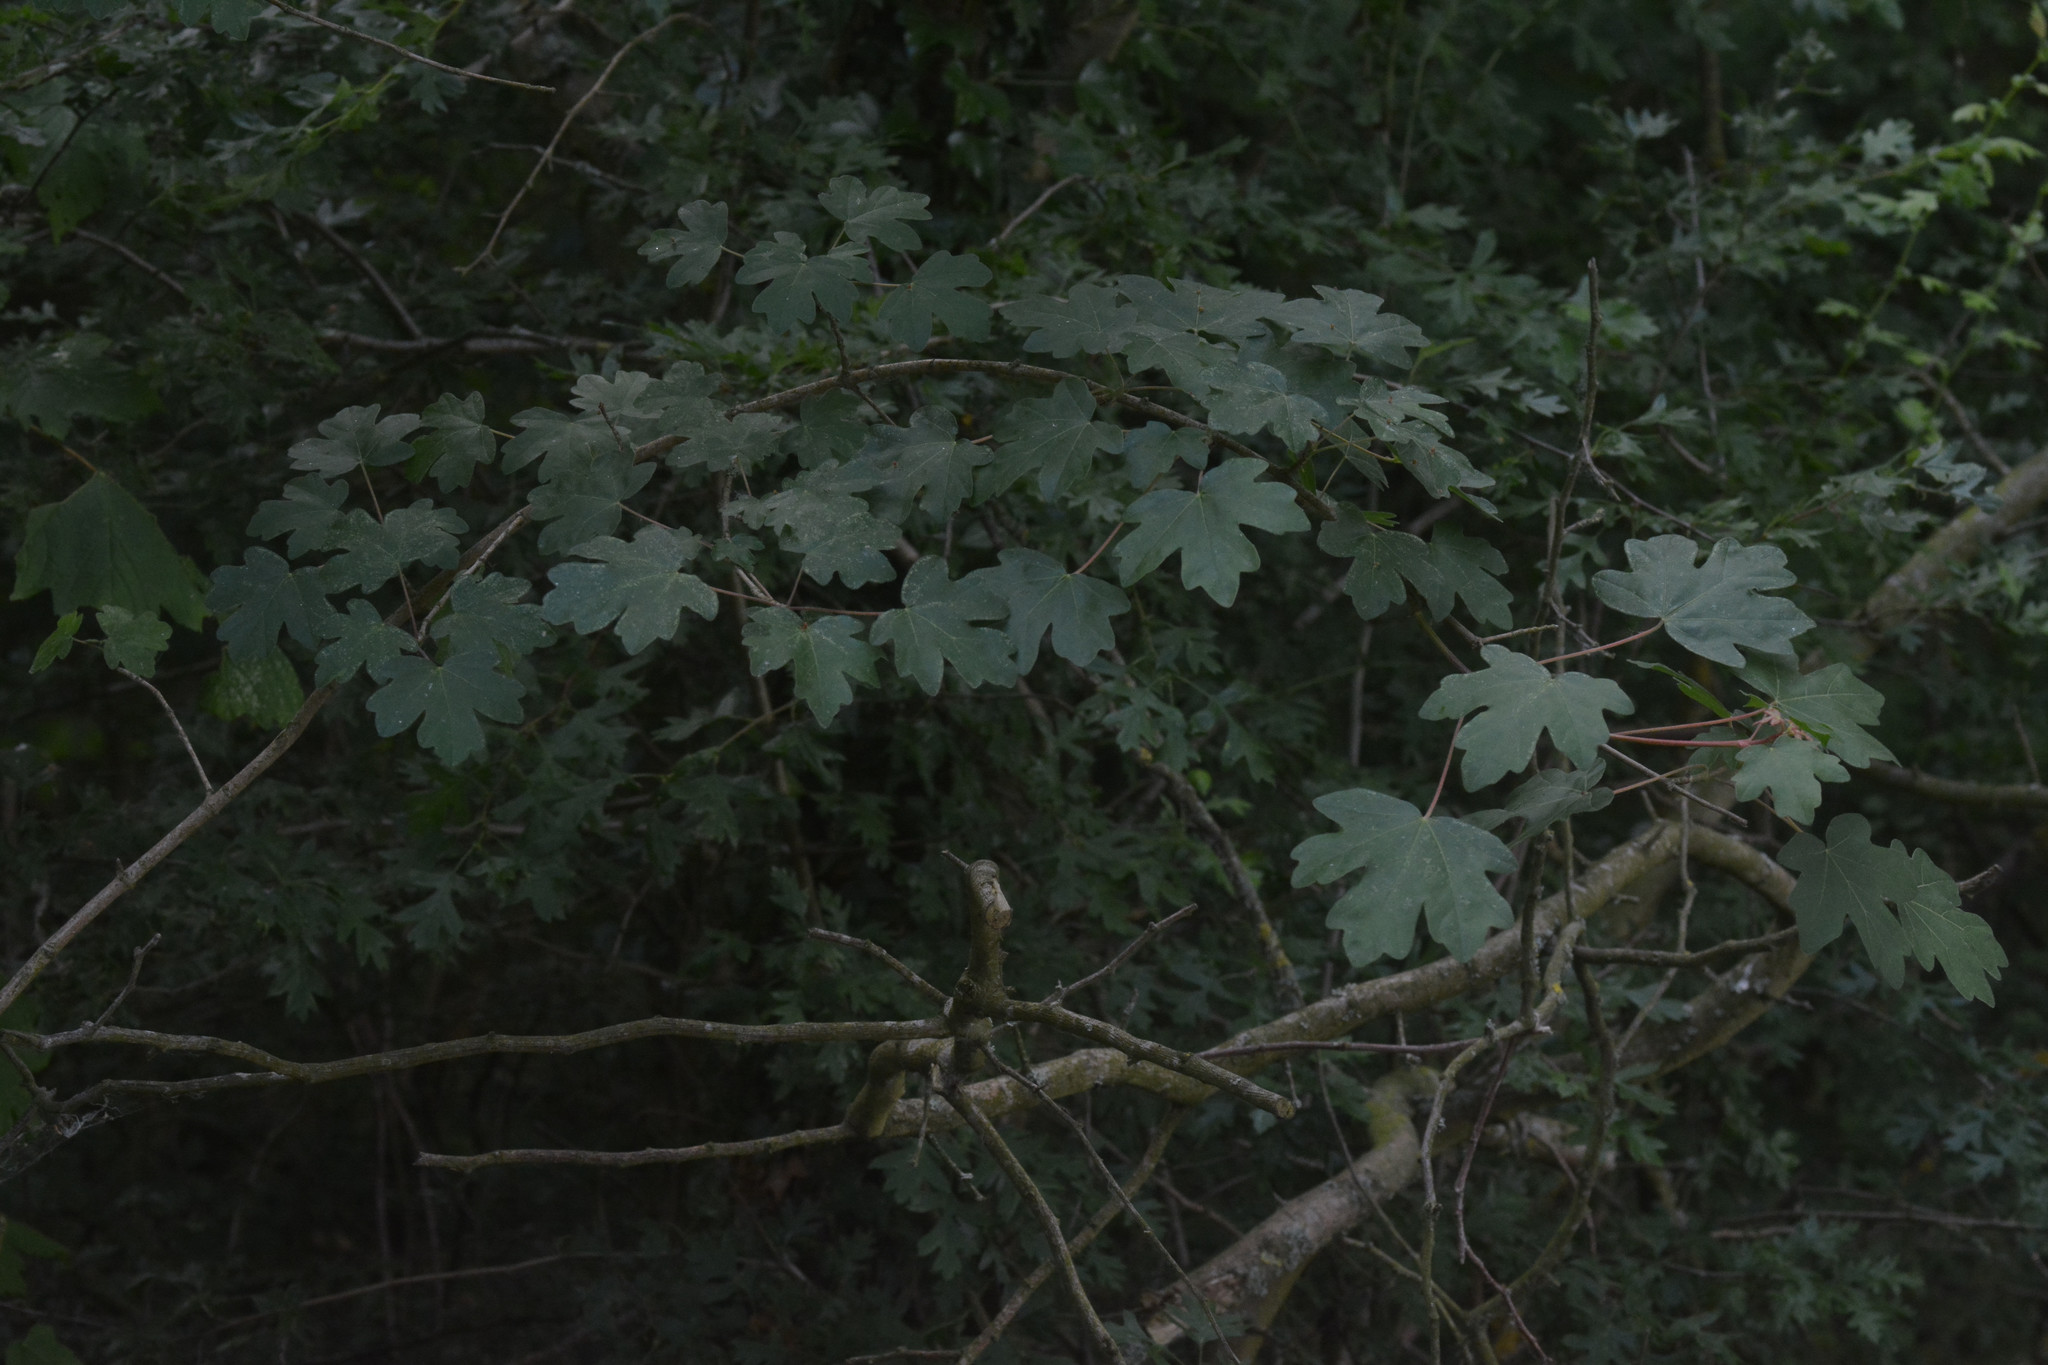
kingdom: Plantae
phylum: Tracheophyta
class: Magnoliopsida
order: Sapindales
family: Sapindaceae
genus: Acer
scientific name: Acer campestre
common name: Field maple
